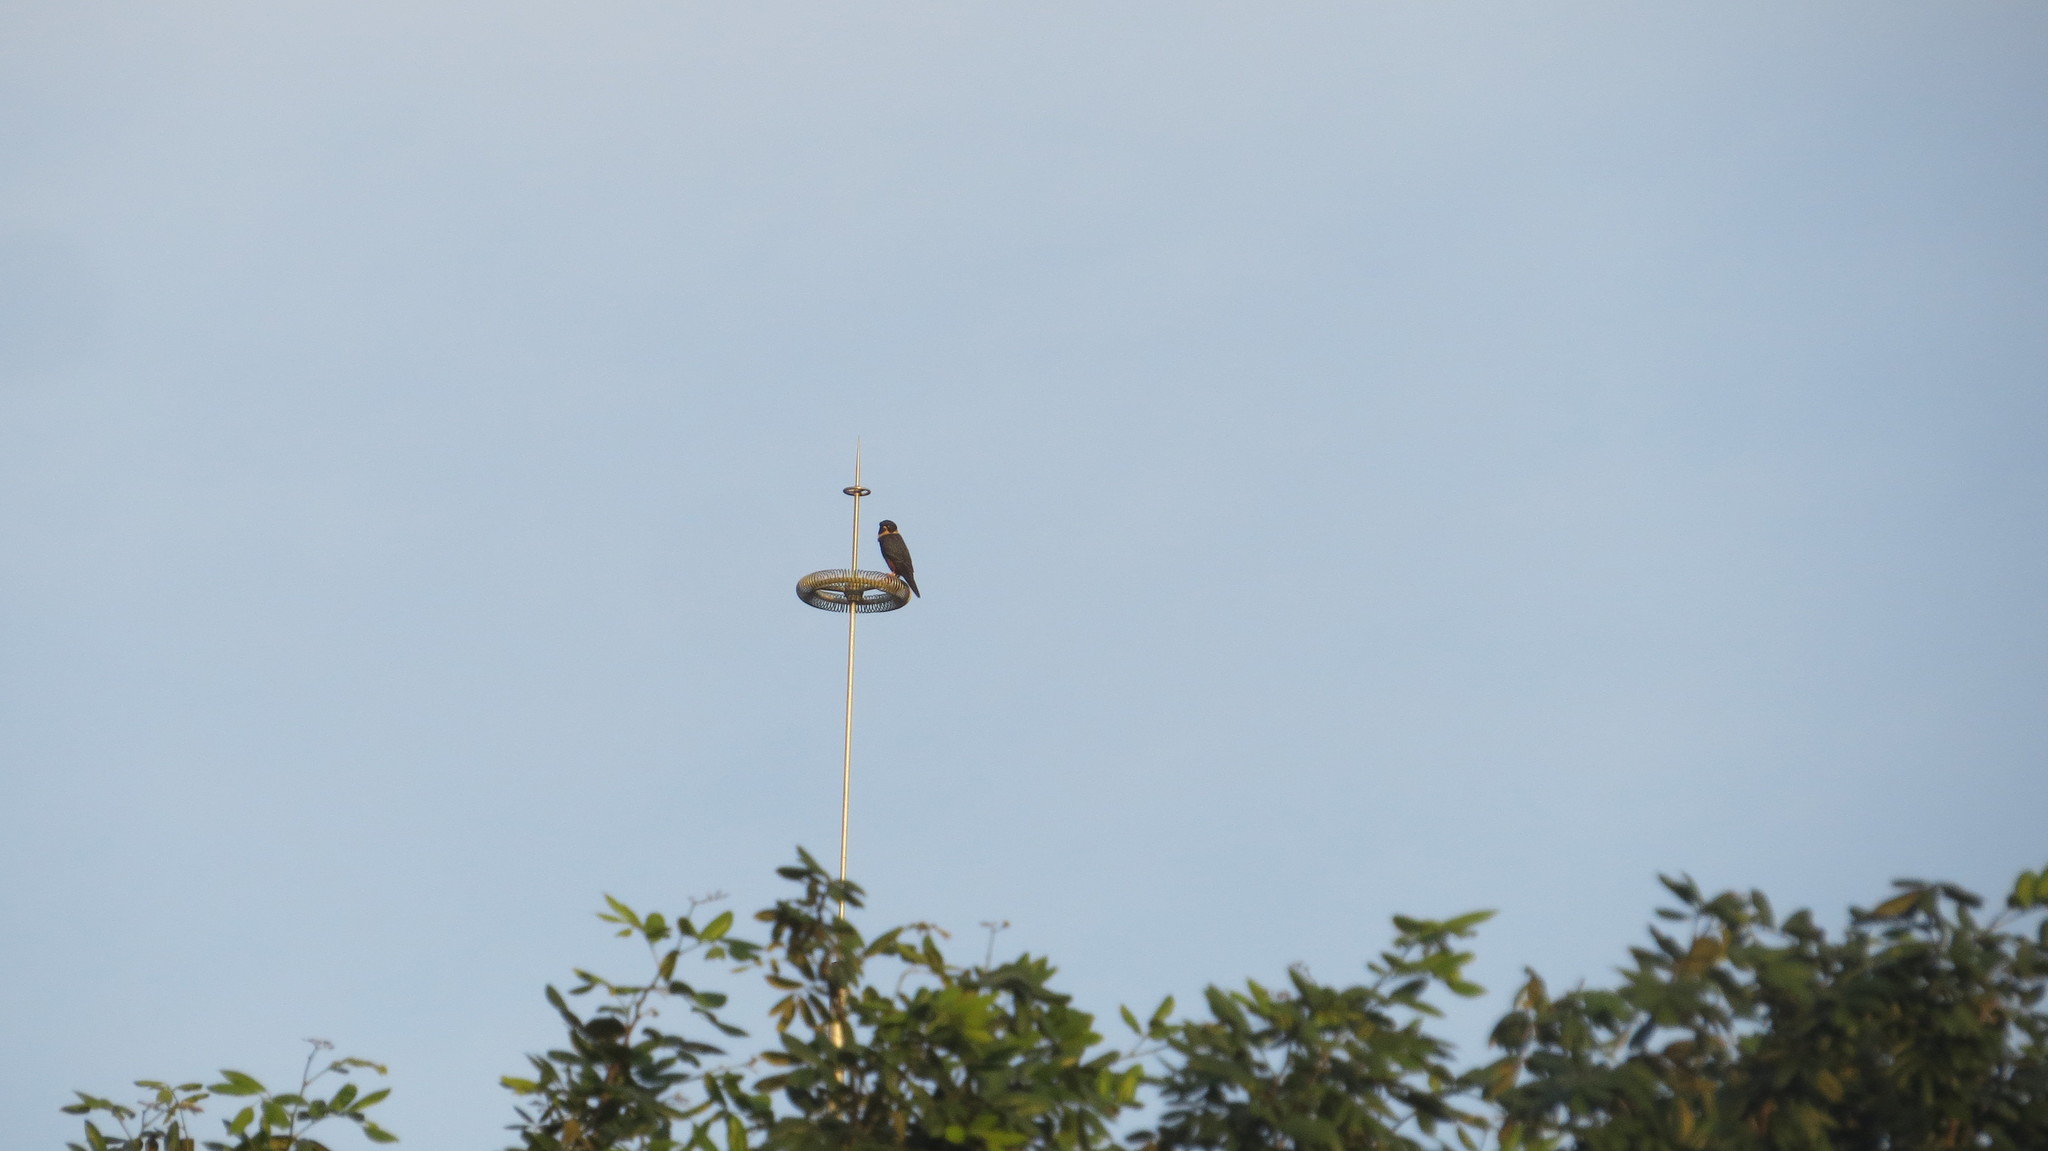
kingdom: Animalia
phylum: Chordata
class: Aves
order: Falconiformes
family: Falconidae
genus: Falco
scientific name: Falco rufigularis
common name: Bat falcon
